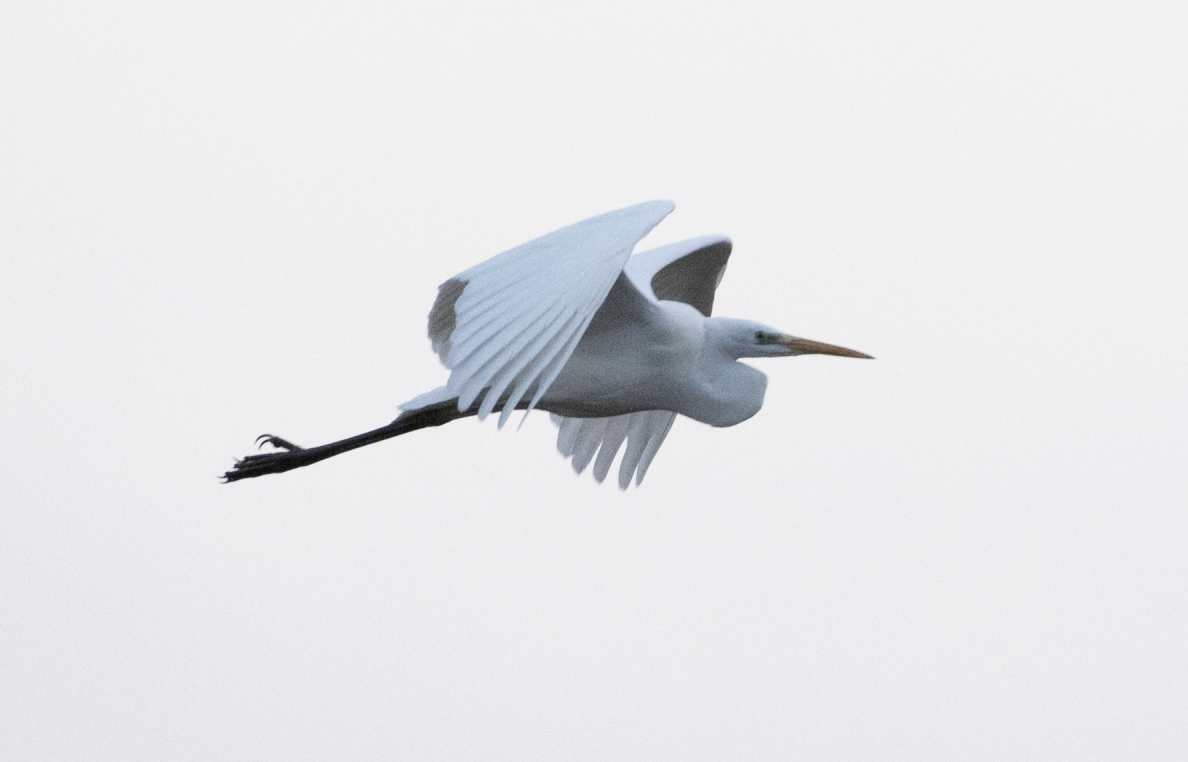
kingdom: Animalia
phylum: Chordata
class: Aves
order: Pelecaniformes
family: Ardeidae
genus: Ardea
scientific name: Ardea alba
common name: Great egret
